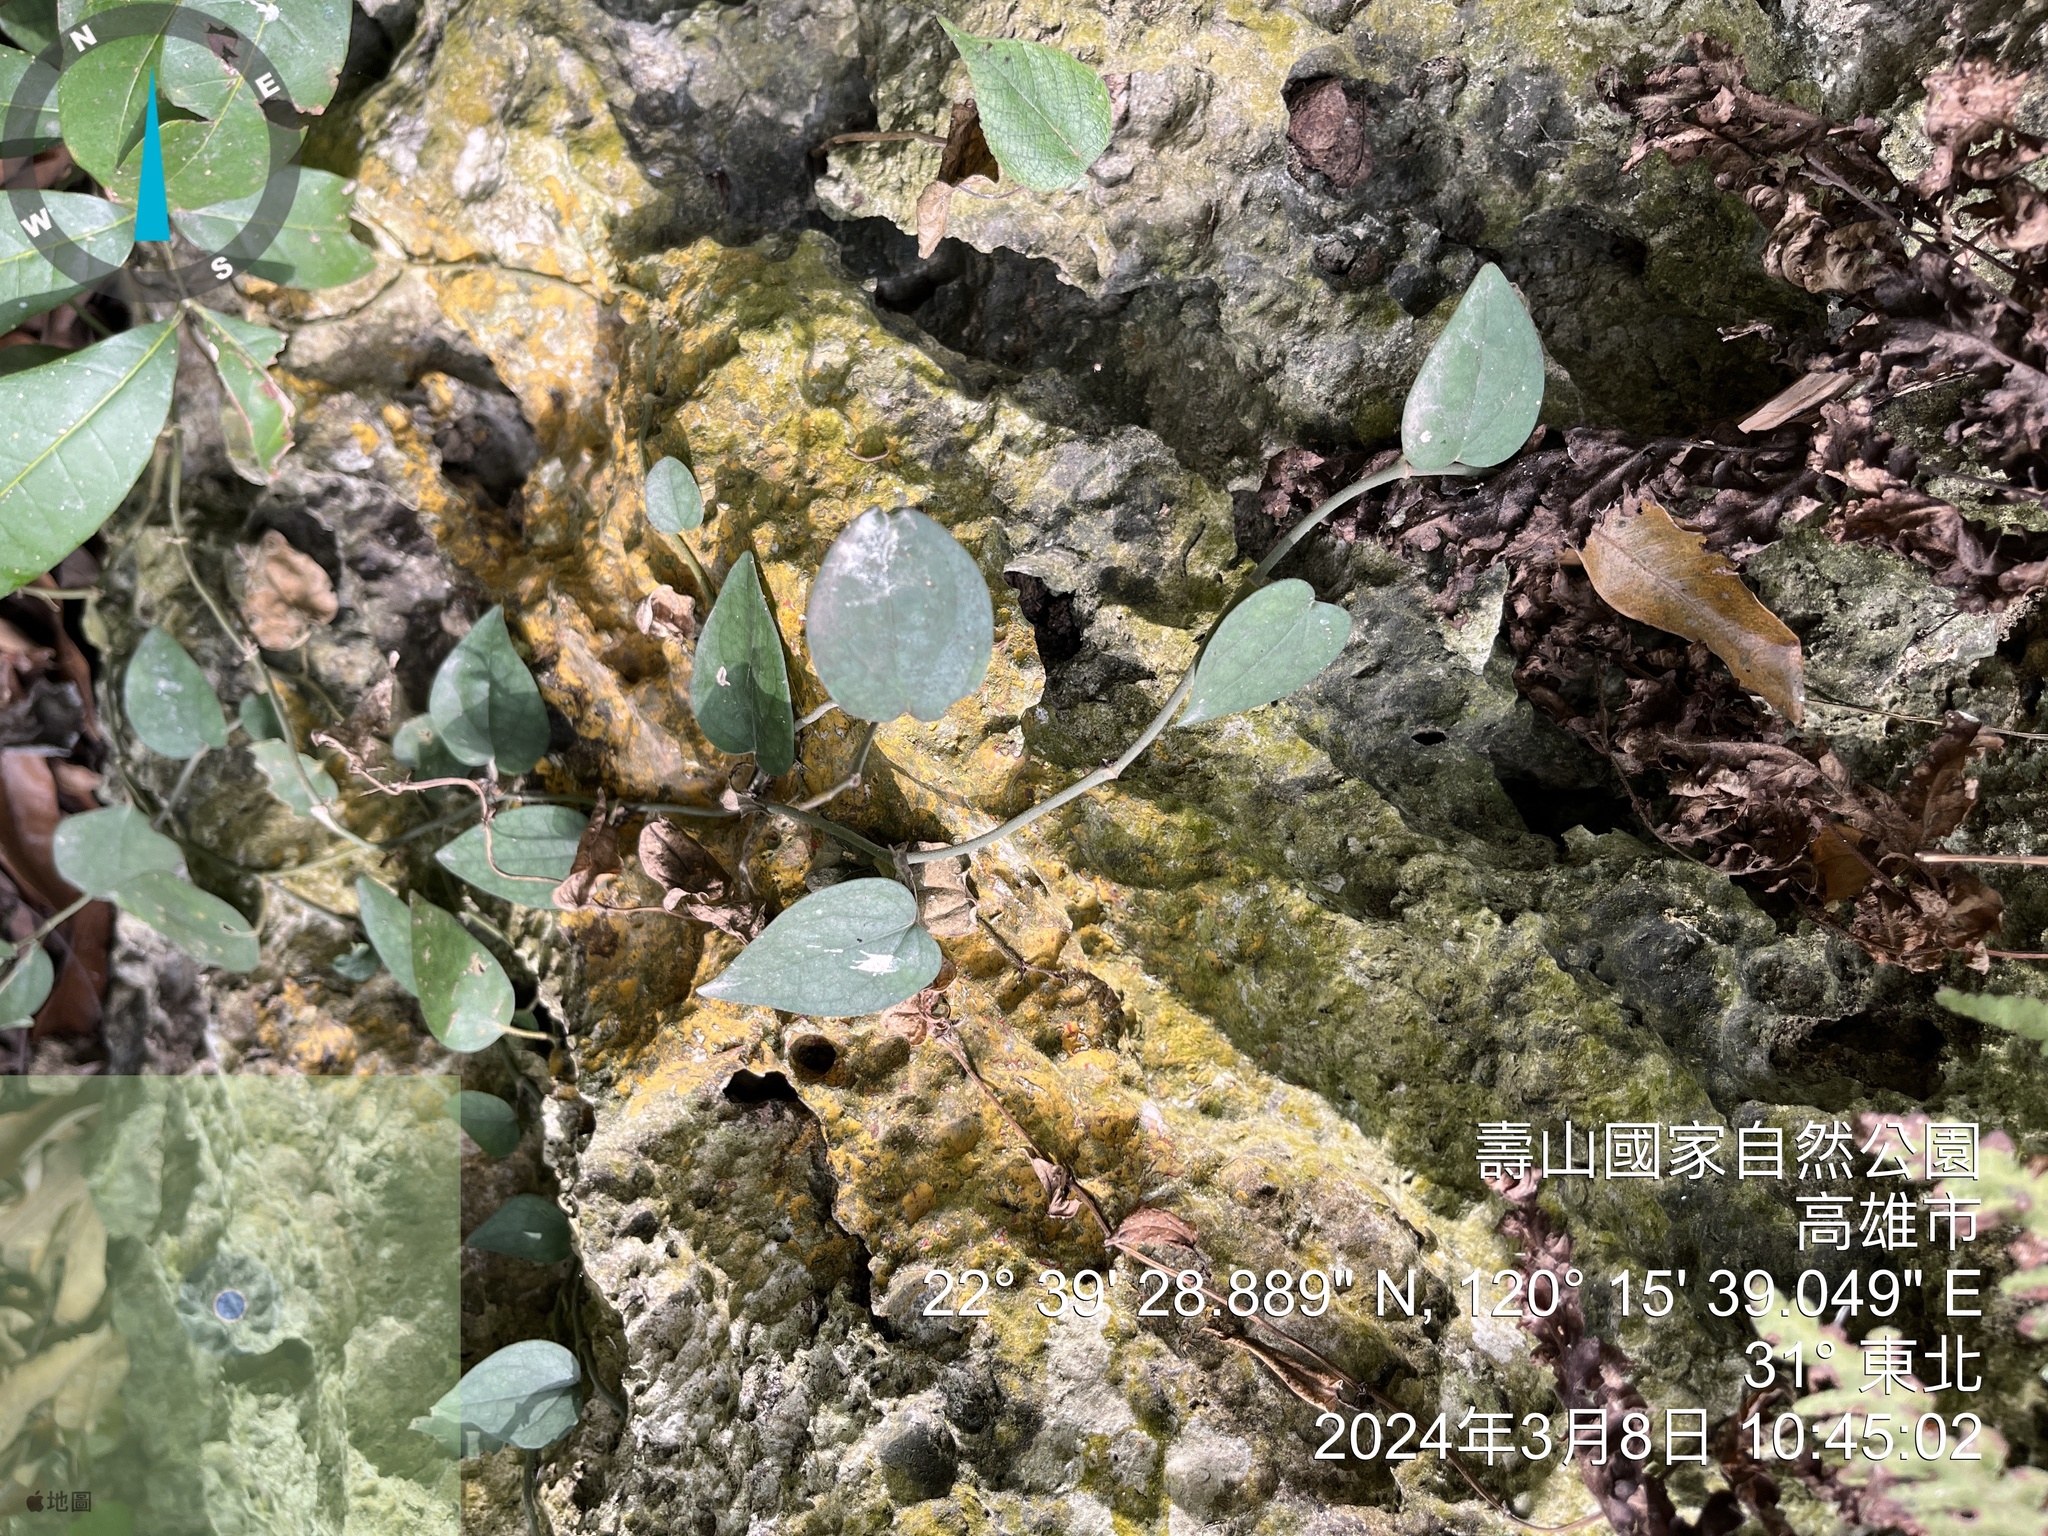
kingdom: Plantae
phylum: Tracheophyta
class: Magnoliopsida
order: Piperales
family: Piperaceae
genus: Piper
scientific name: Piper kadsura
